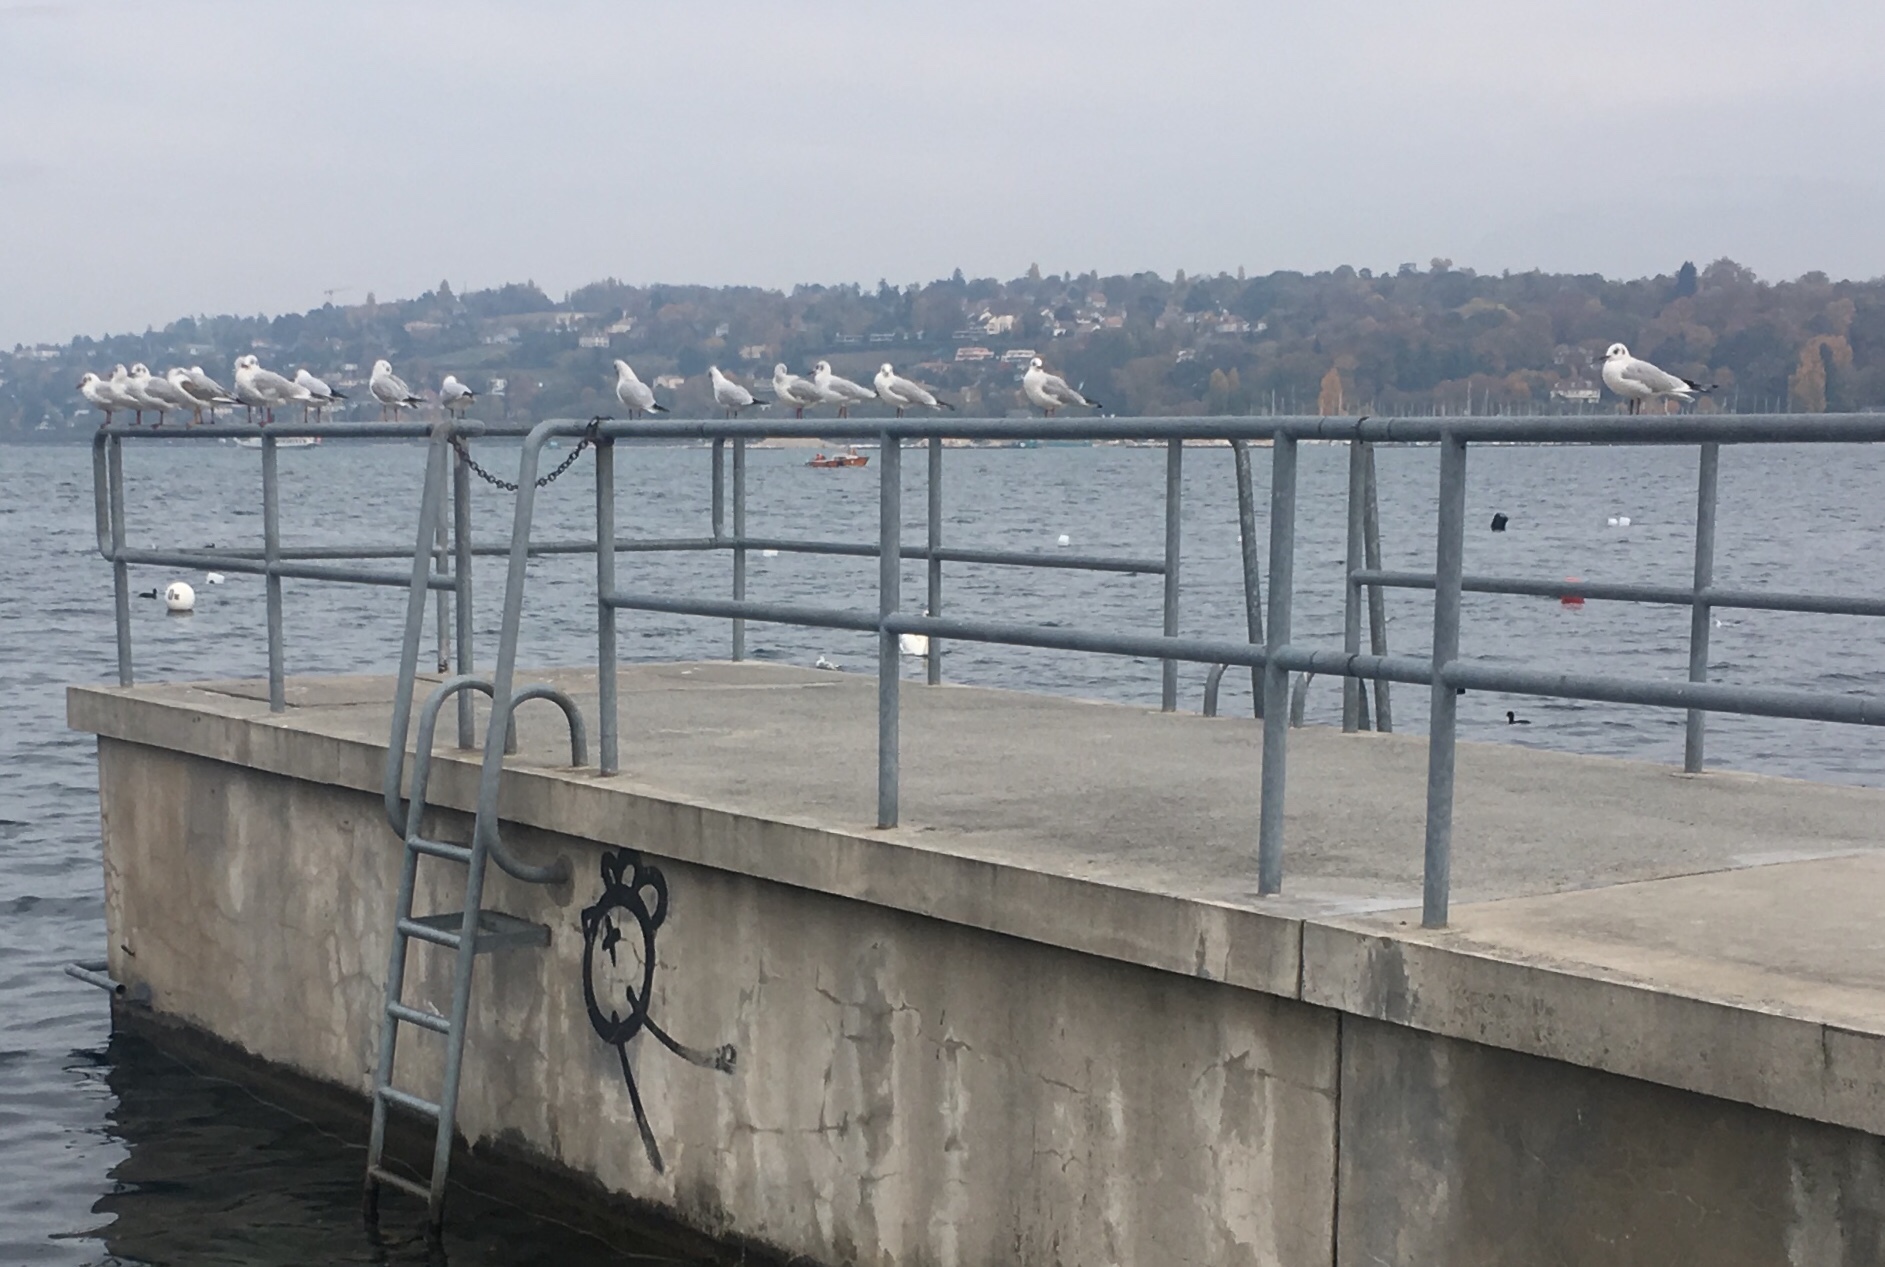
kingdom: Animalia
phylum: Chordata
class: Aves
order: Charadriiformes
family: Laridae
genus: Chroicocephalus
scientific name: Chroicocephalus ridibundus
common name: Black-headed gull
